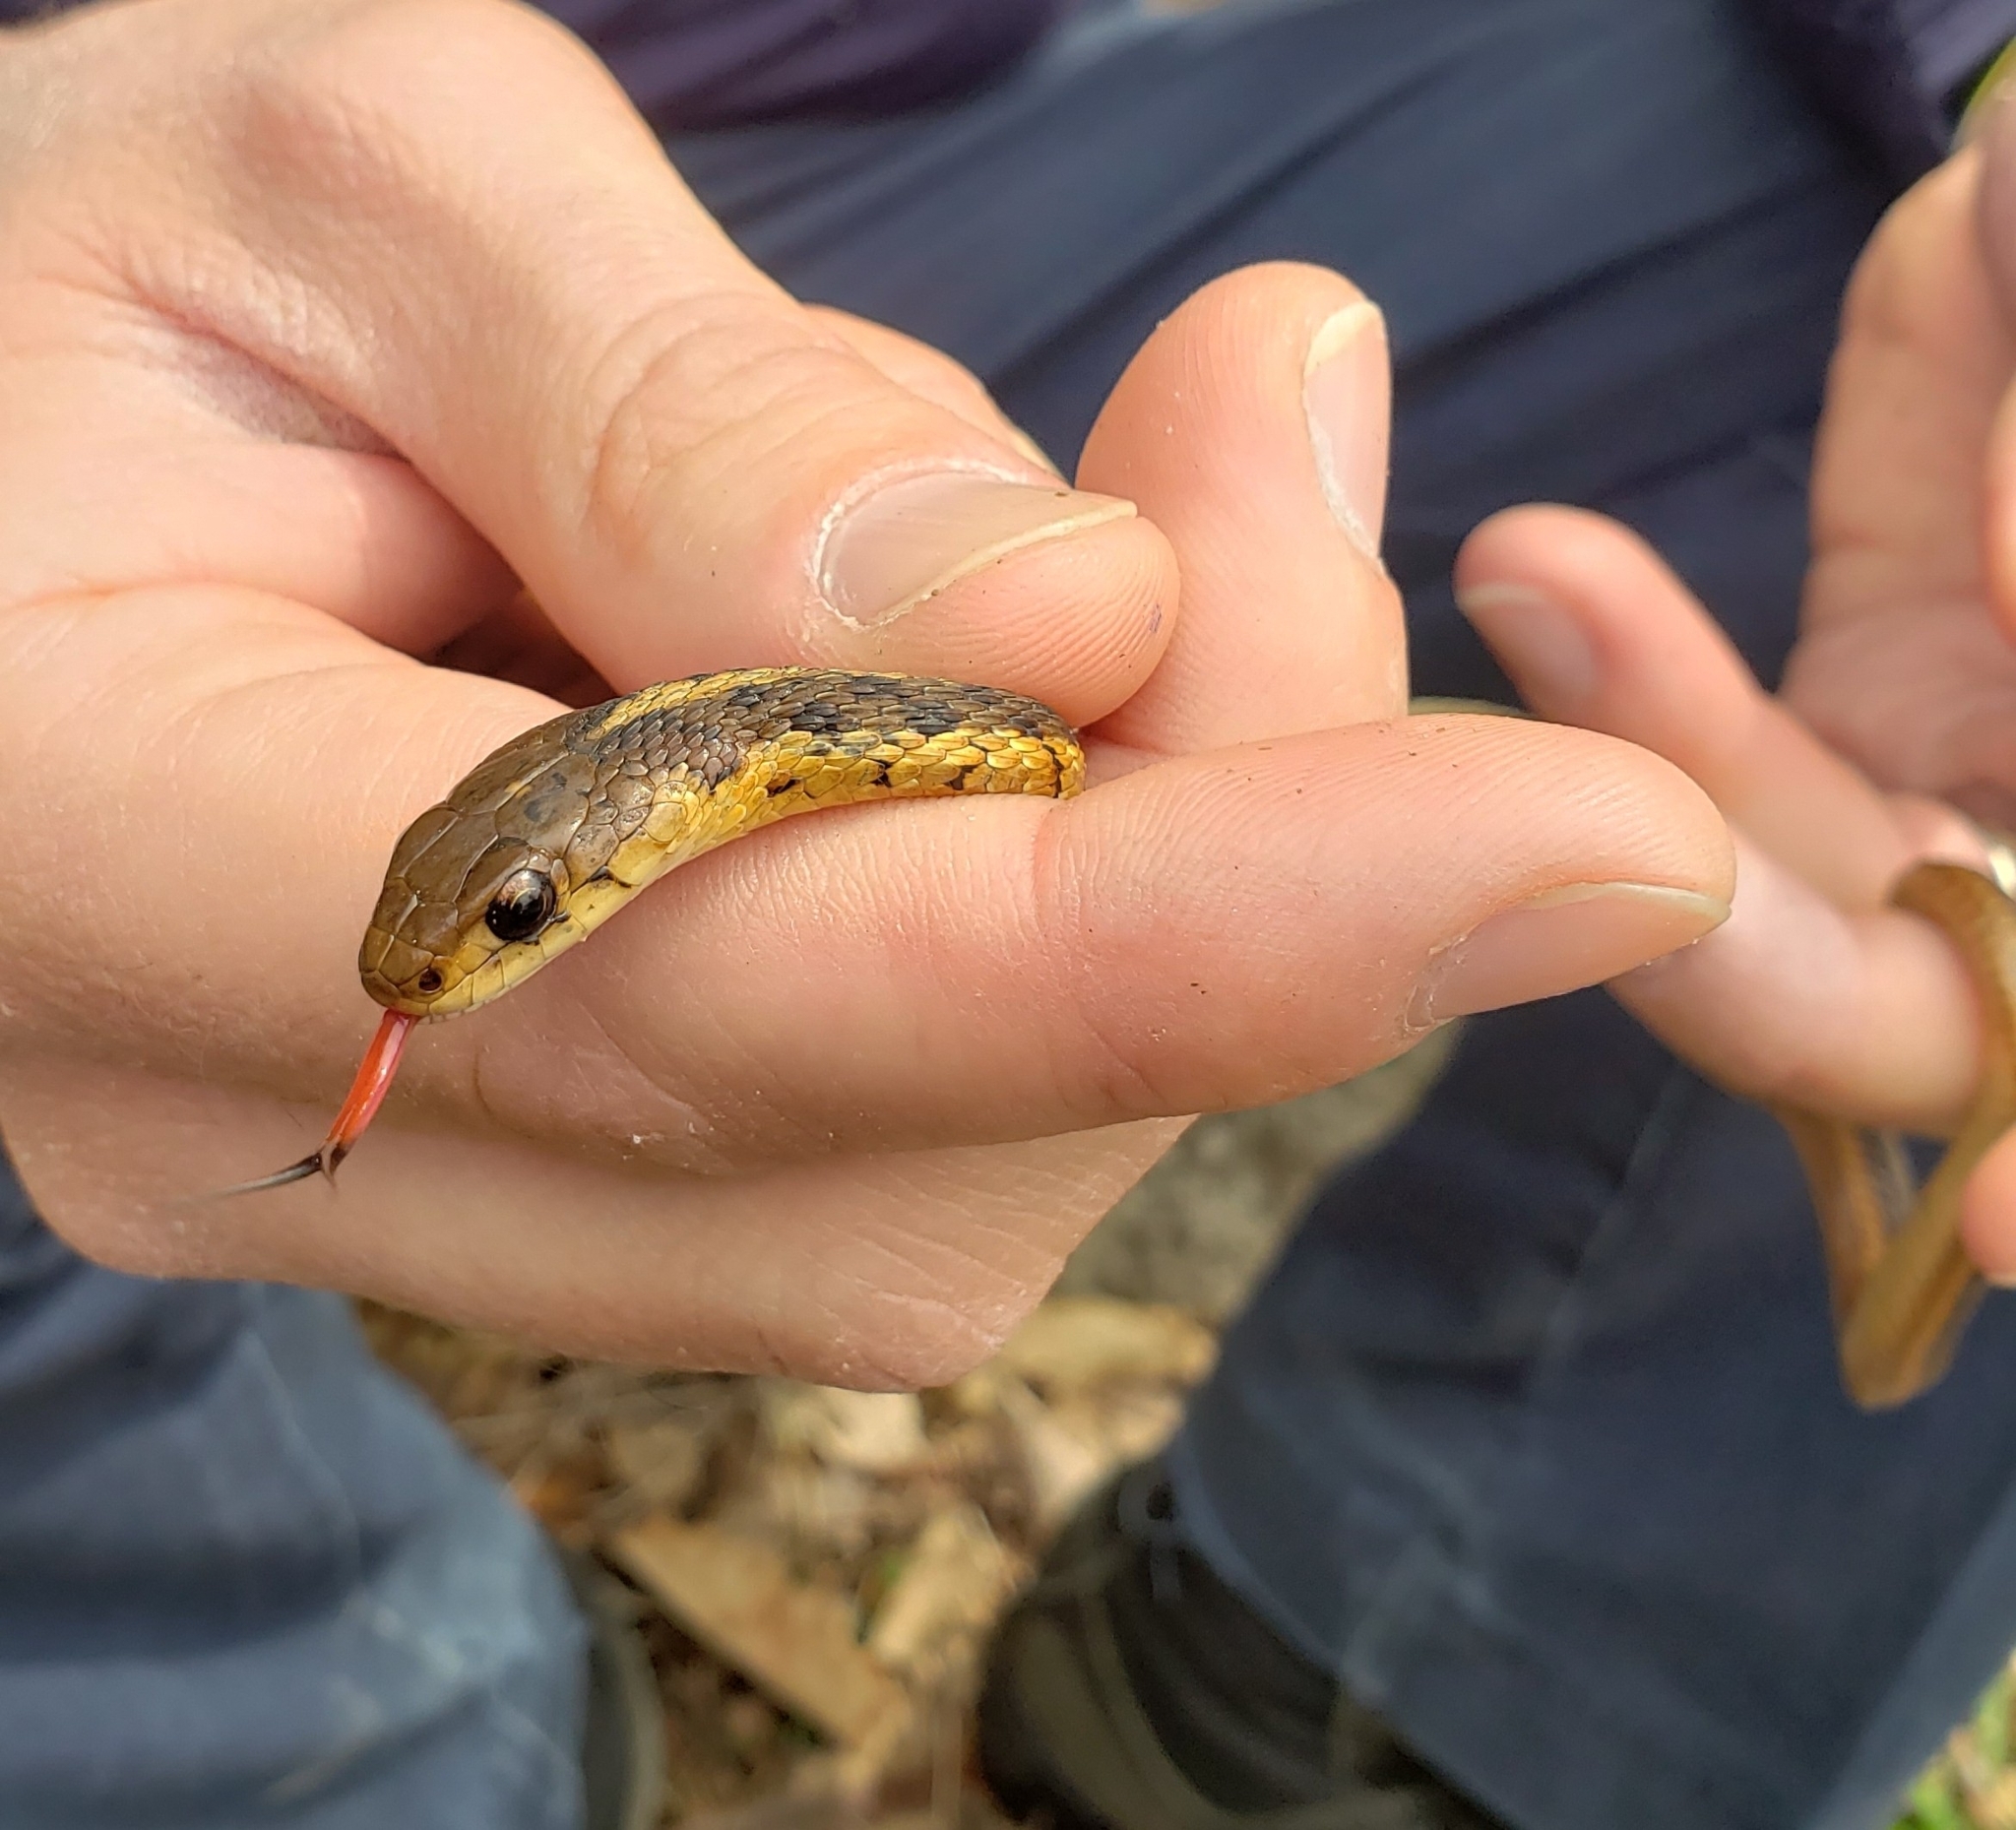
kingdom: Animalia
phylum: Chordata
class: Squamata
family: Colubridae
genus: Thamnophis
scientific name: Thamnophis sirtalis
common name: Common garter snake
